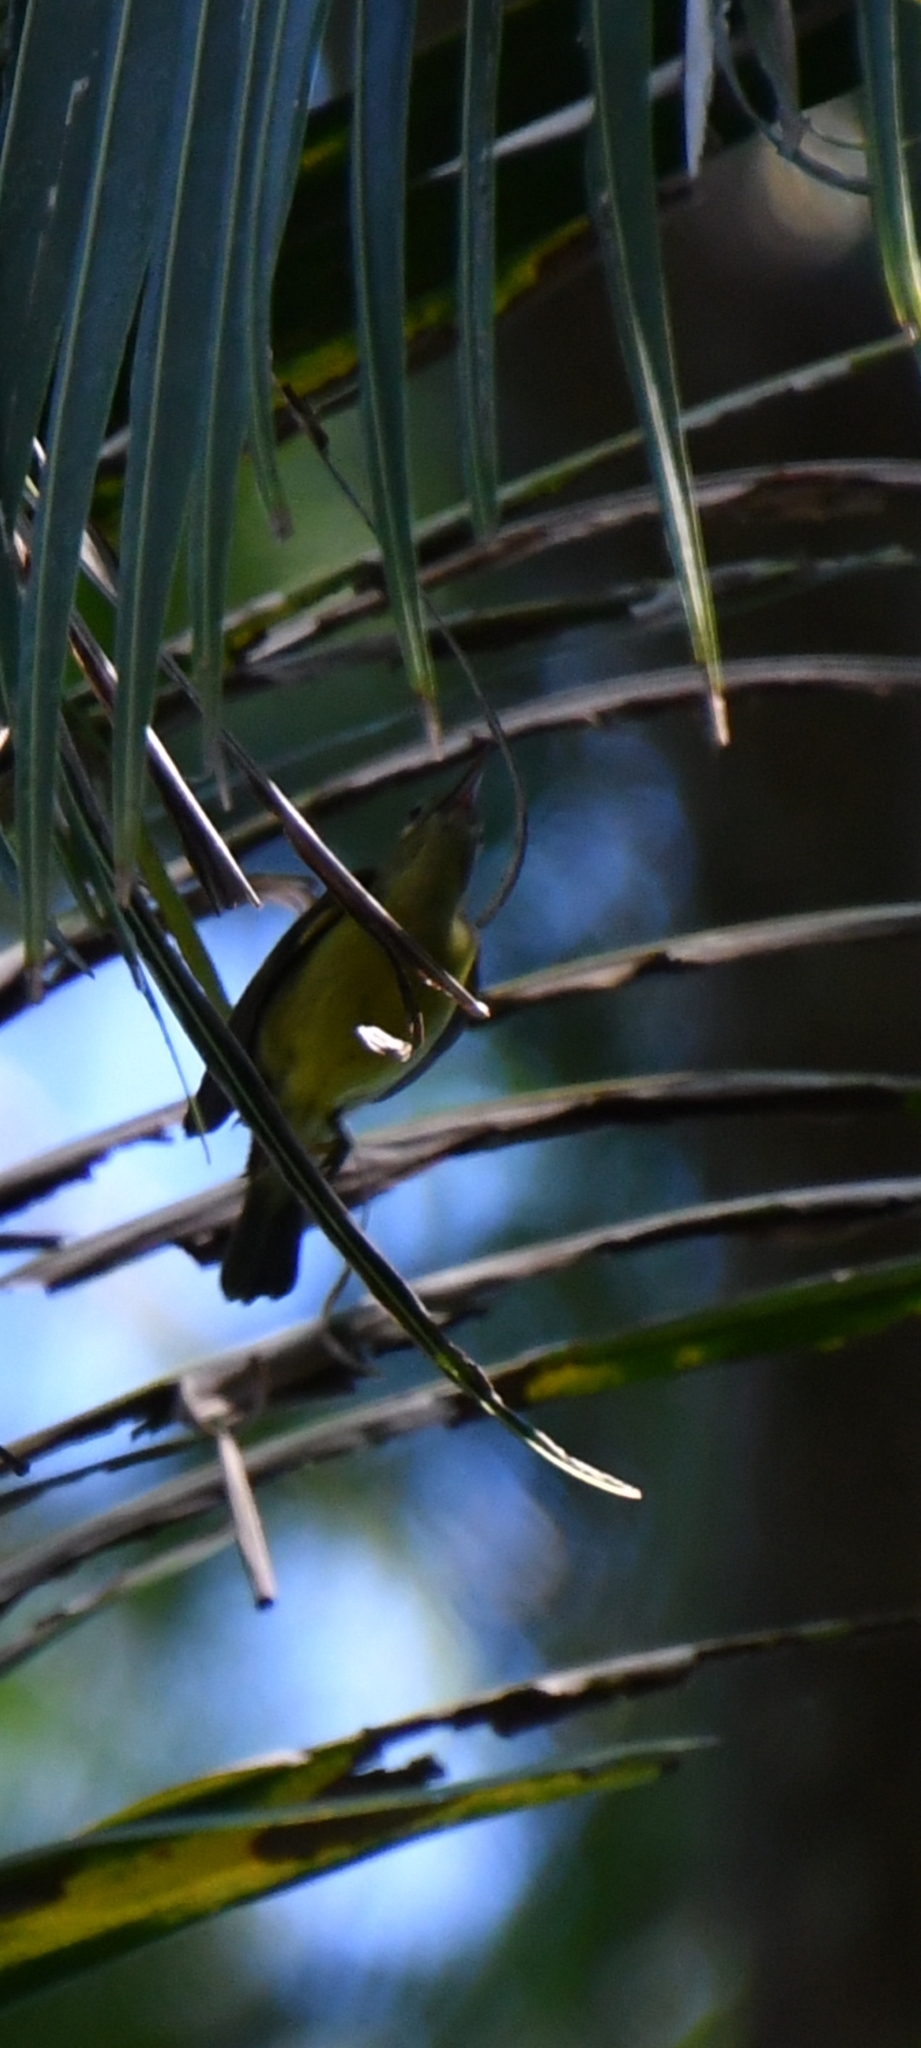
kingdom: Animalia
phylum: Chordata
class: Aves
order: Passeriformes
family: Nectariniidae
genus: Anthreptes
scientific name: Anthreptes malacensis
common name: Brown-throated sunbird
